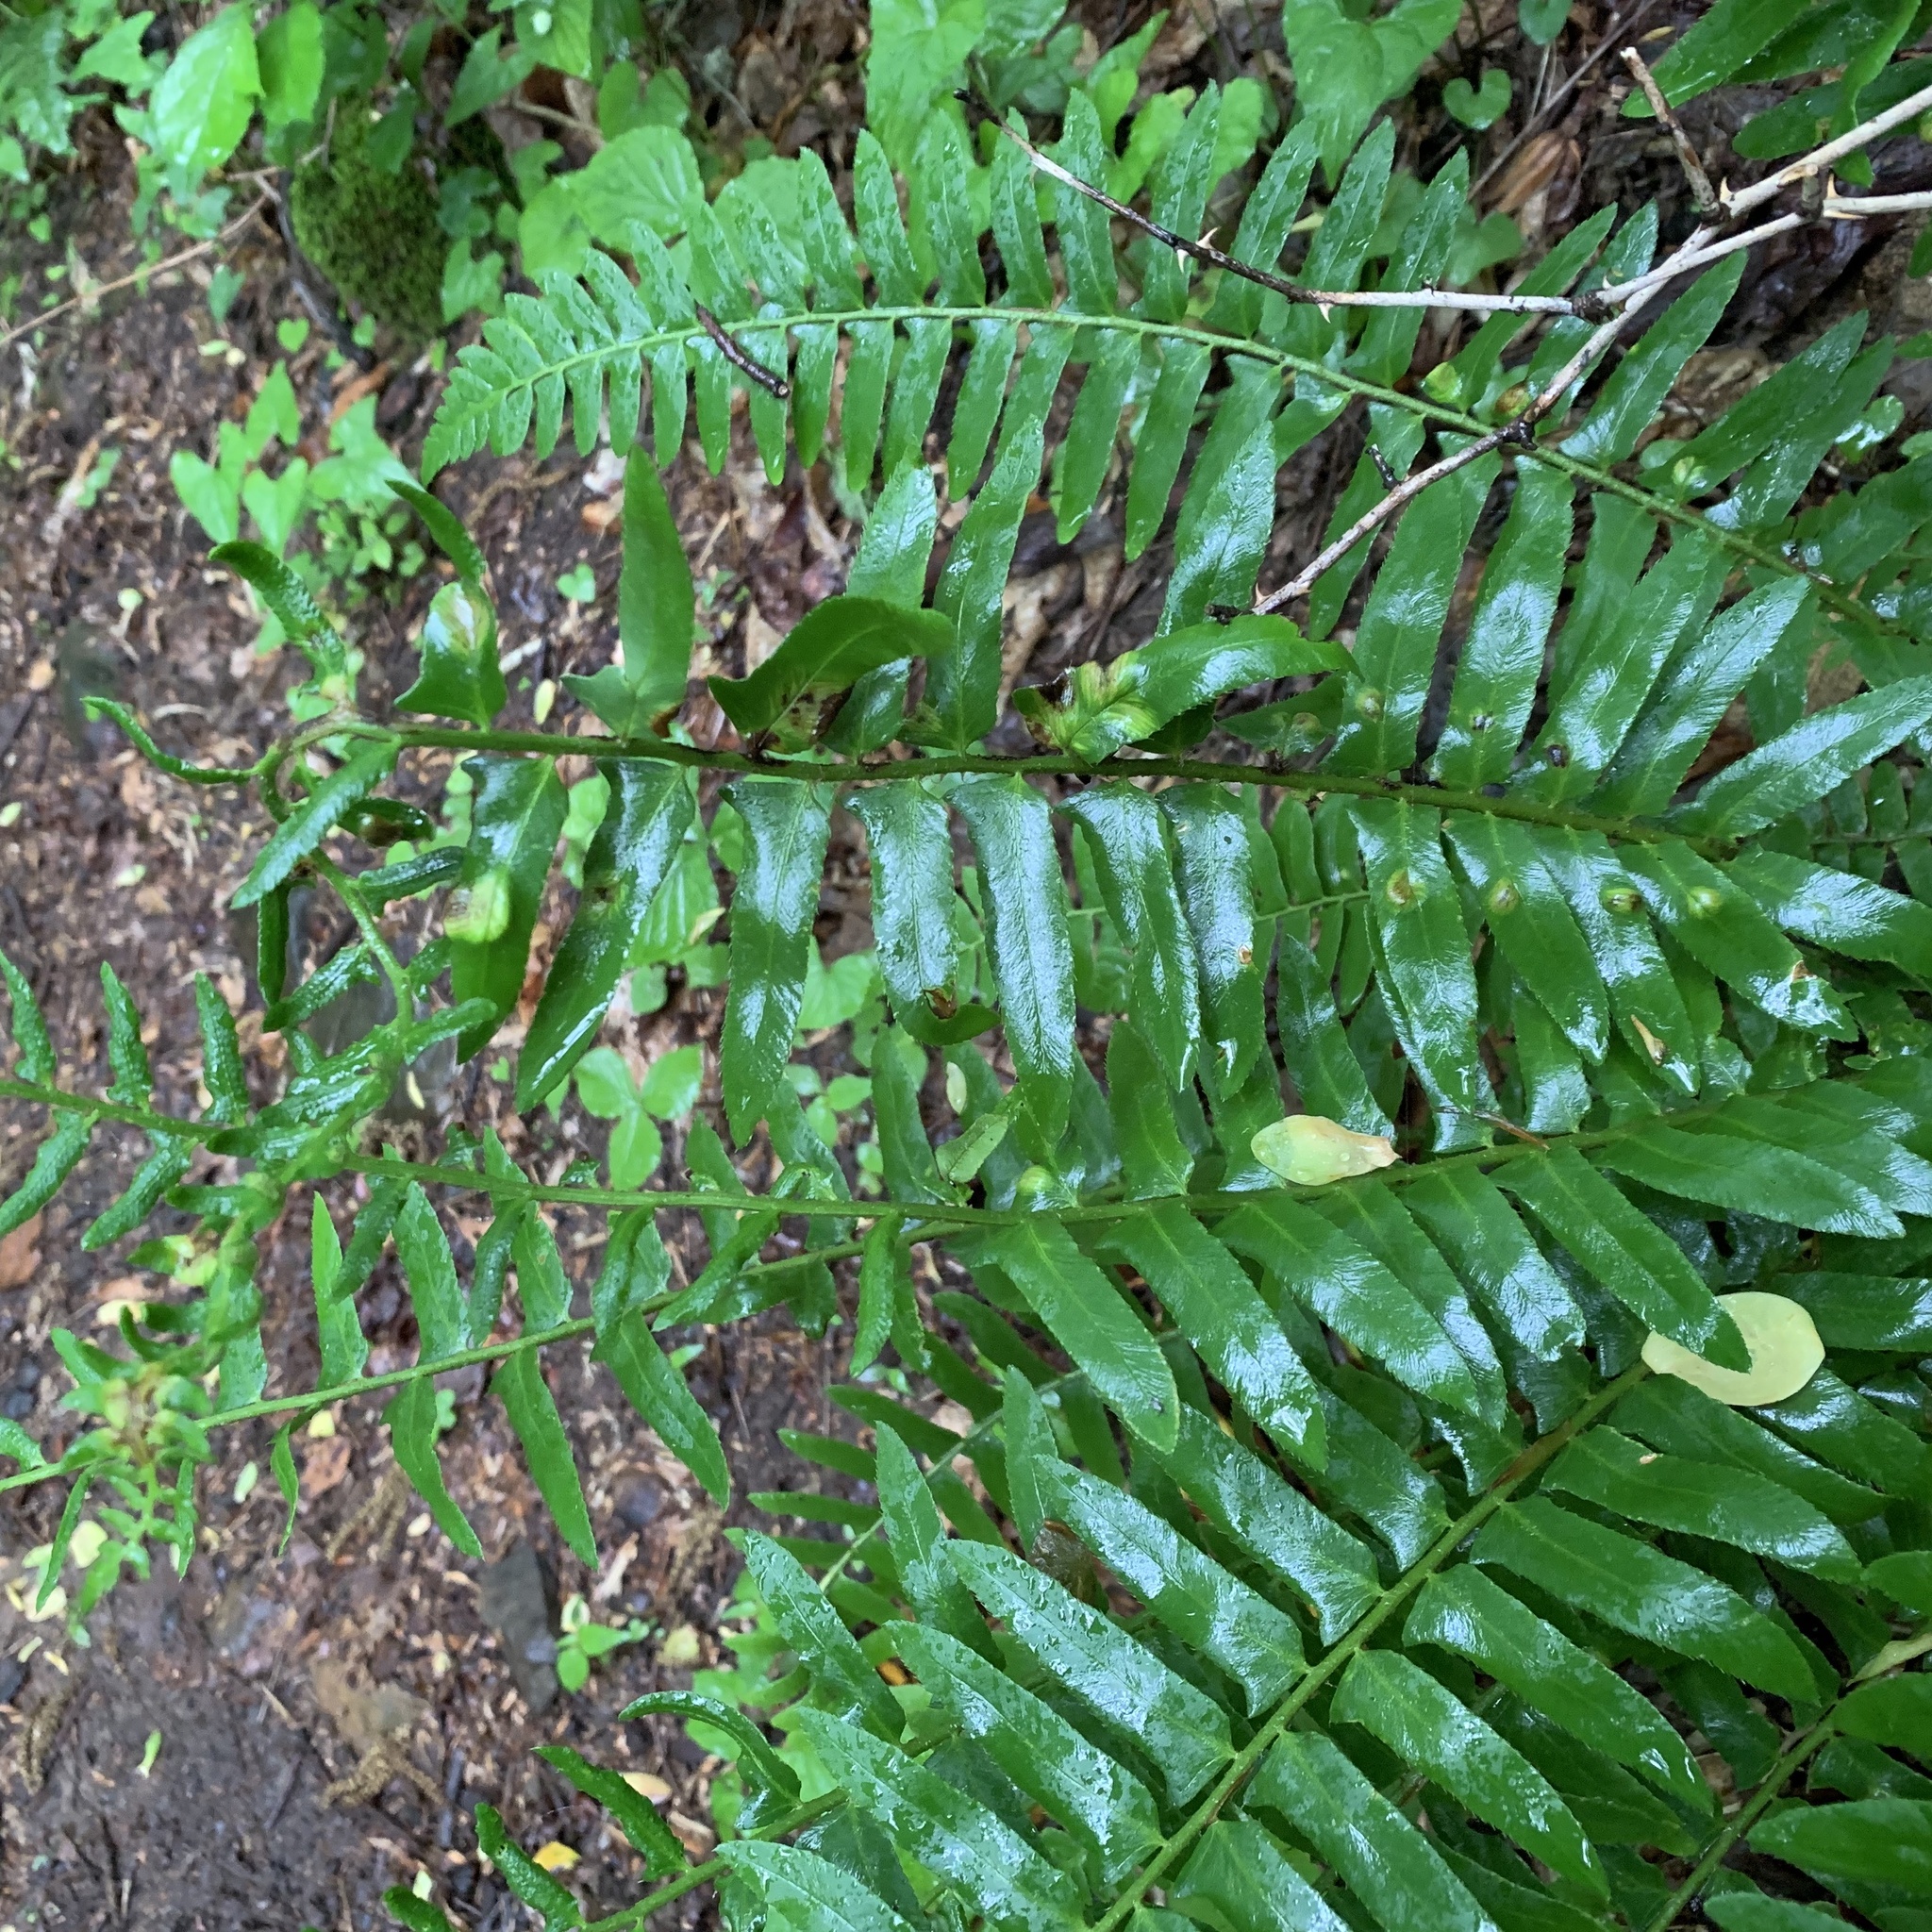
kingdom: Fungi
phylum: Ascomycota
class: Taphrinomycetes
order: Taphrinales
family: Taphrinaceae
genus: Taphrina
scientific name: Taphrina polystichi
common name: Christmas fern leaf curl
